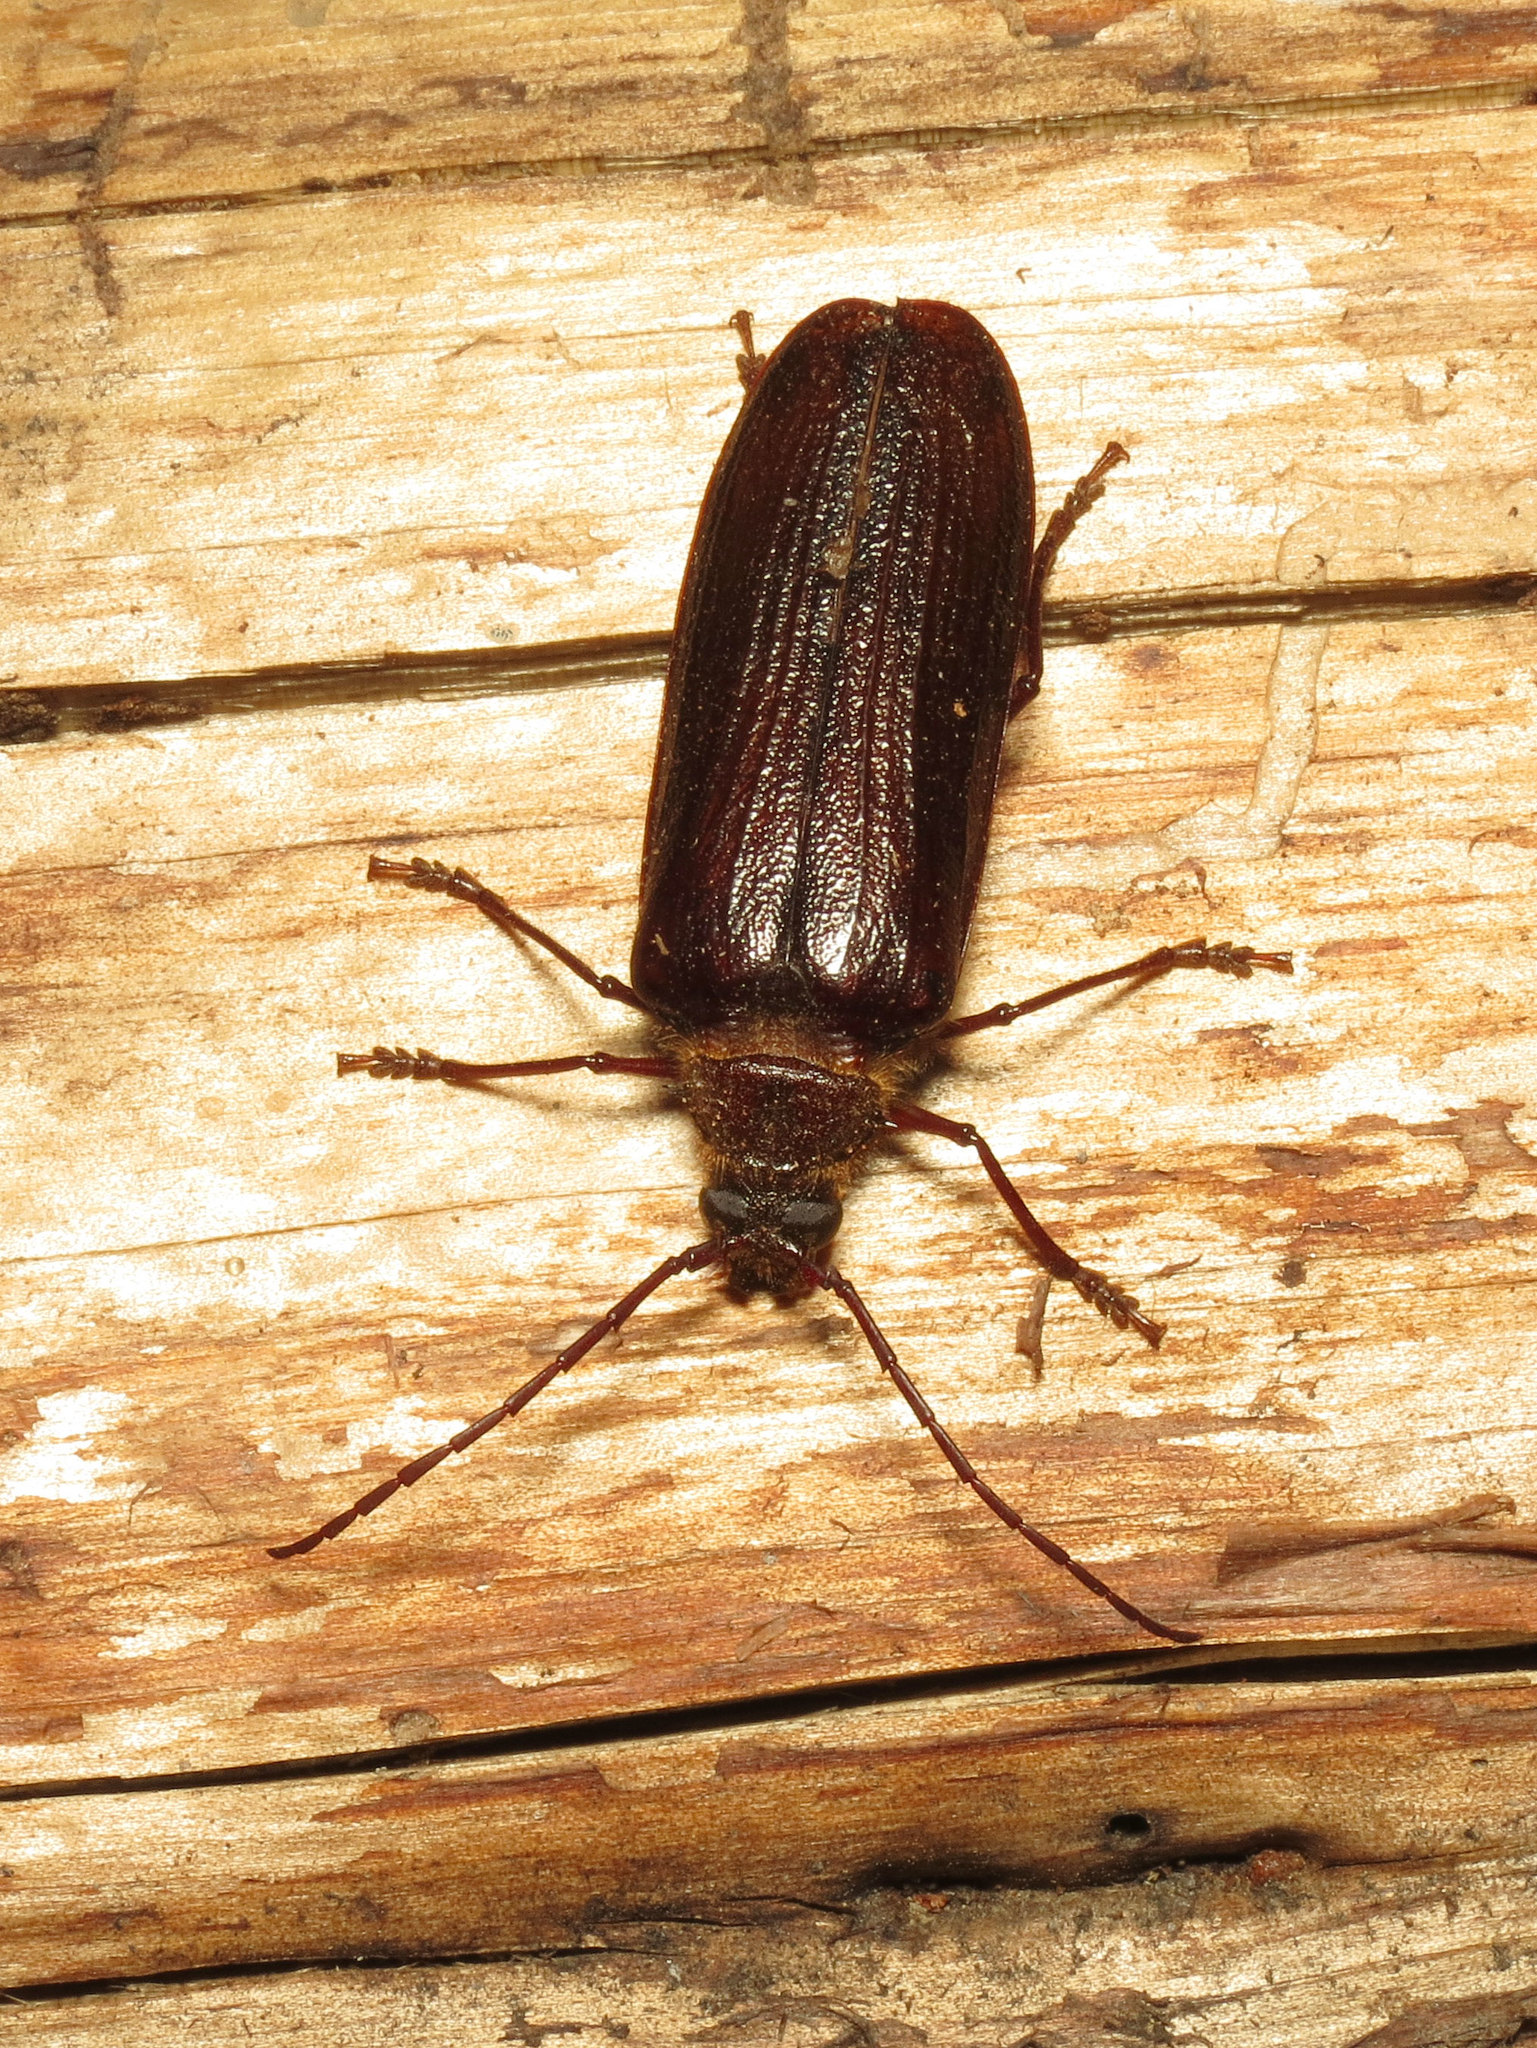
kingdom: Animalia
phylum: Arthropoda
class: Insecta
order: Coleoptera
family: Cerambycidae
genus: Tragosoma
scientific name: Tragosoma harrisii
